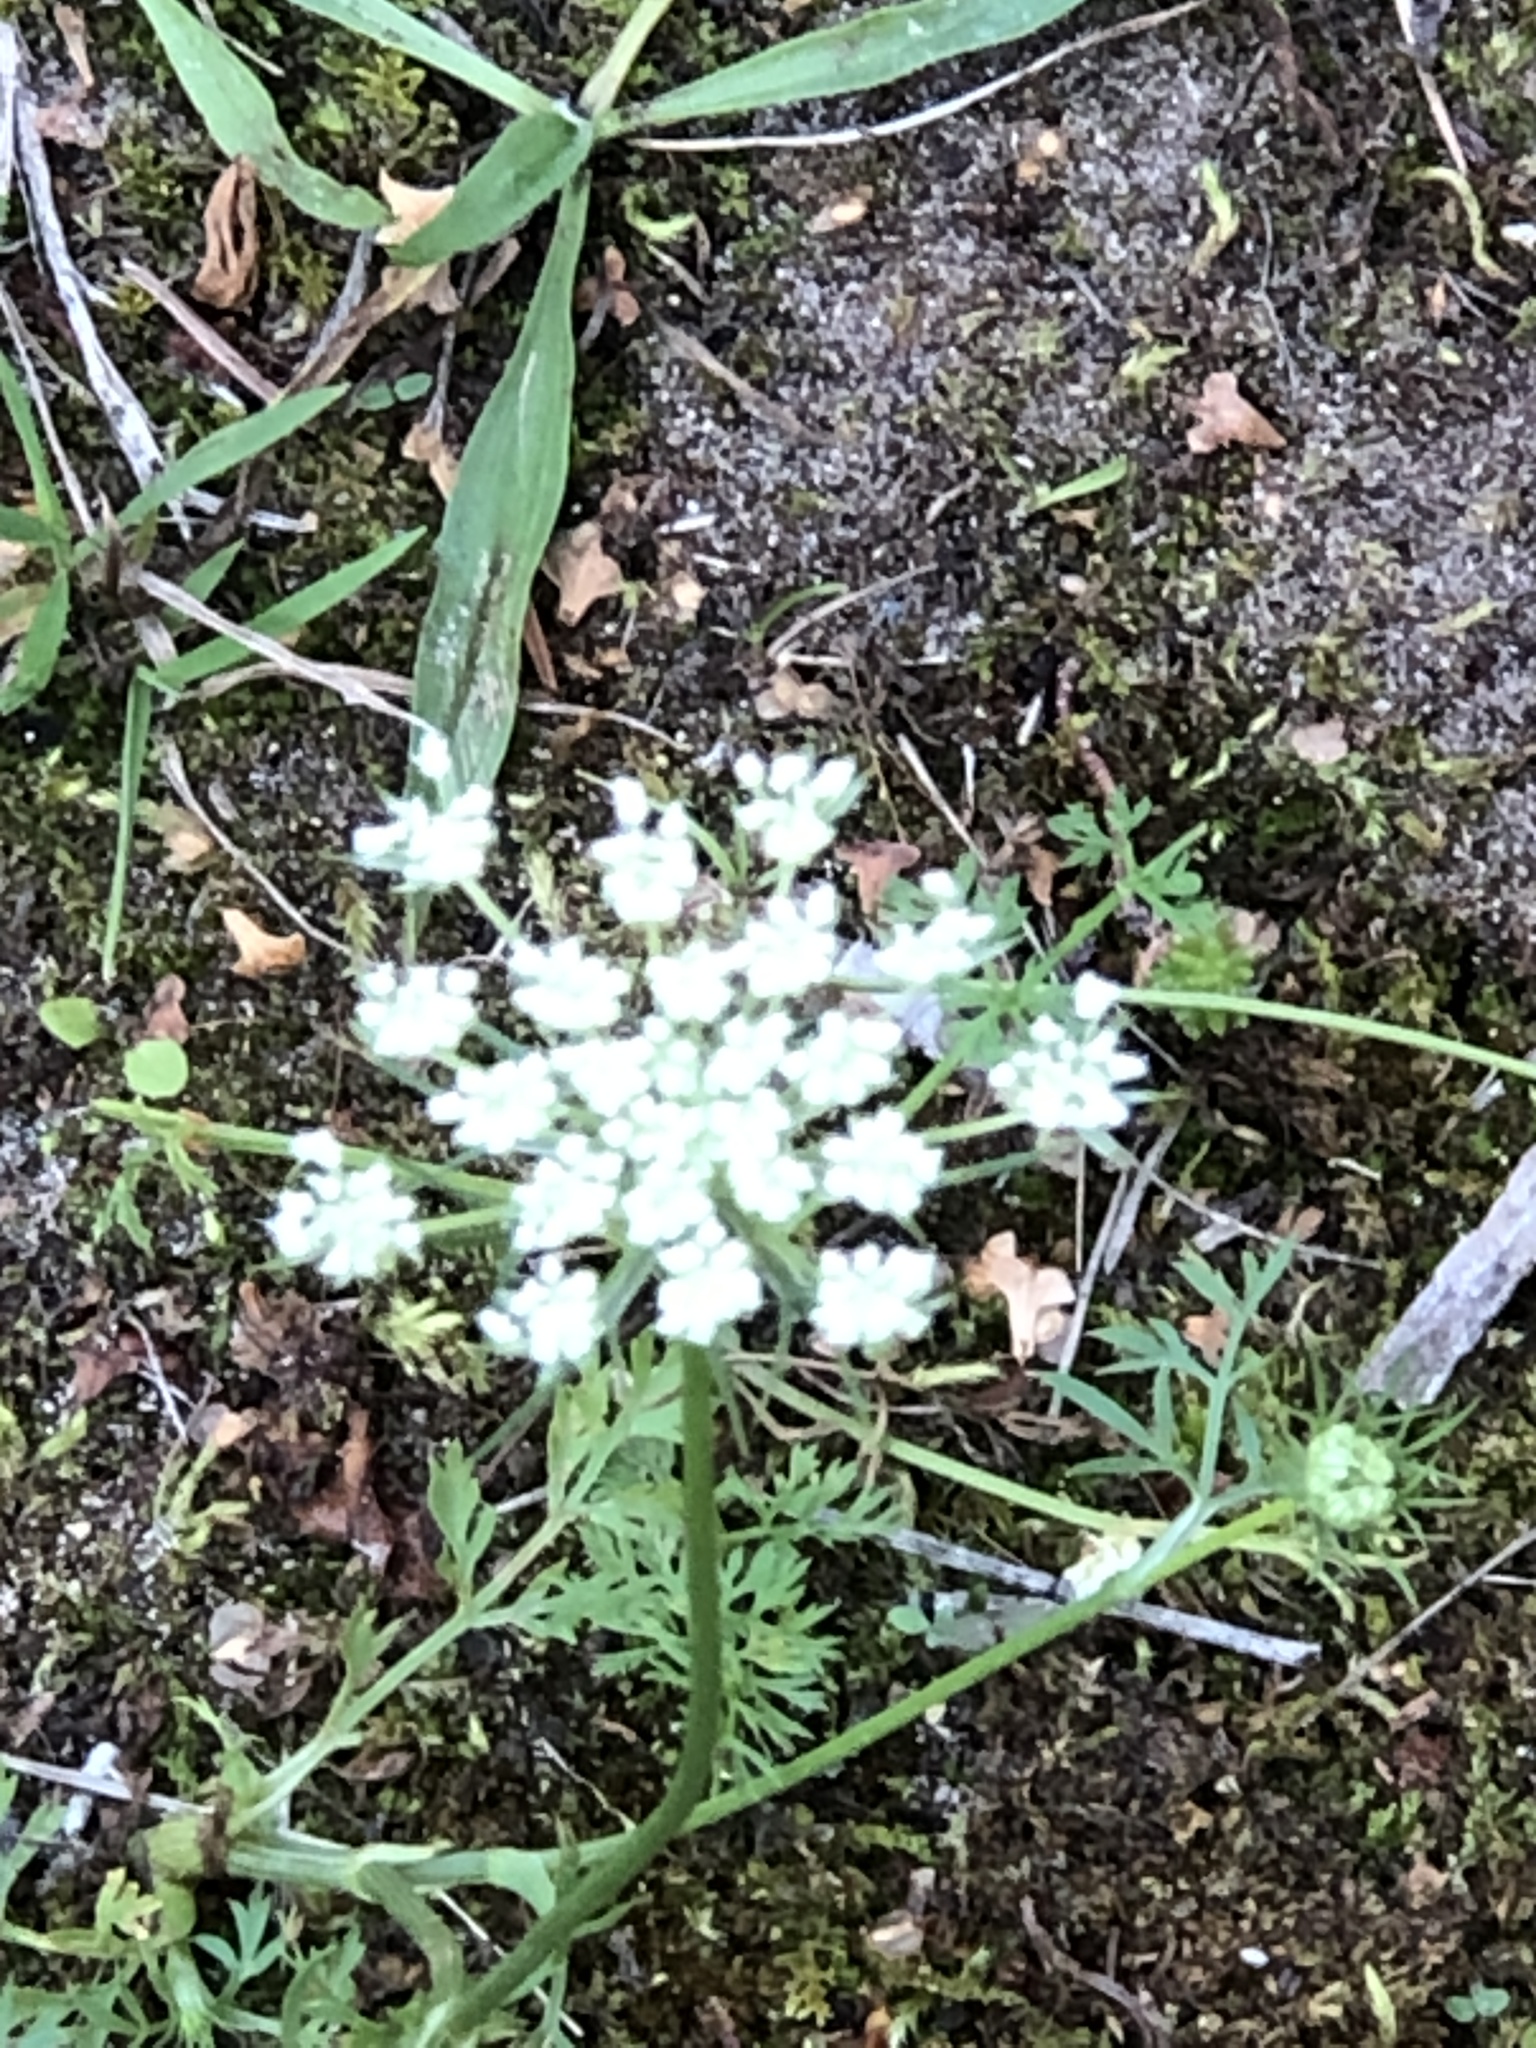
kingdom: Plantae
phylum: Tracheophyta
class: Magnoliopsida
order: Apiales
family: Apiaceae
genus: Daucus
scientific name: Daucus carota
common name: Wild carrot
